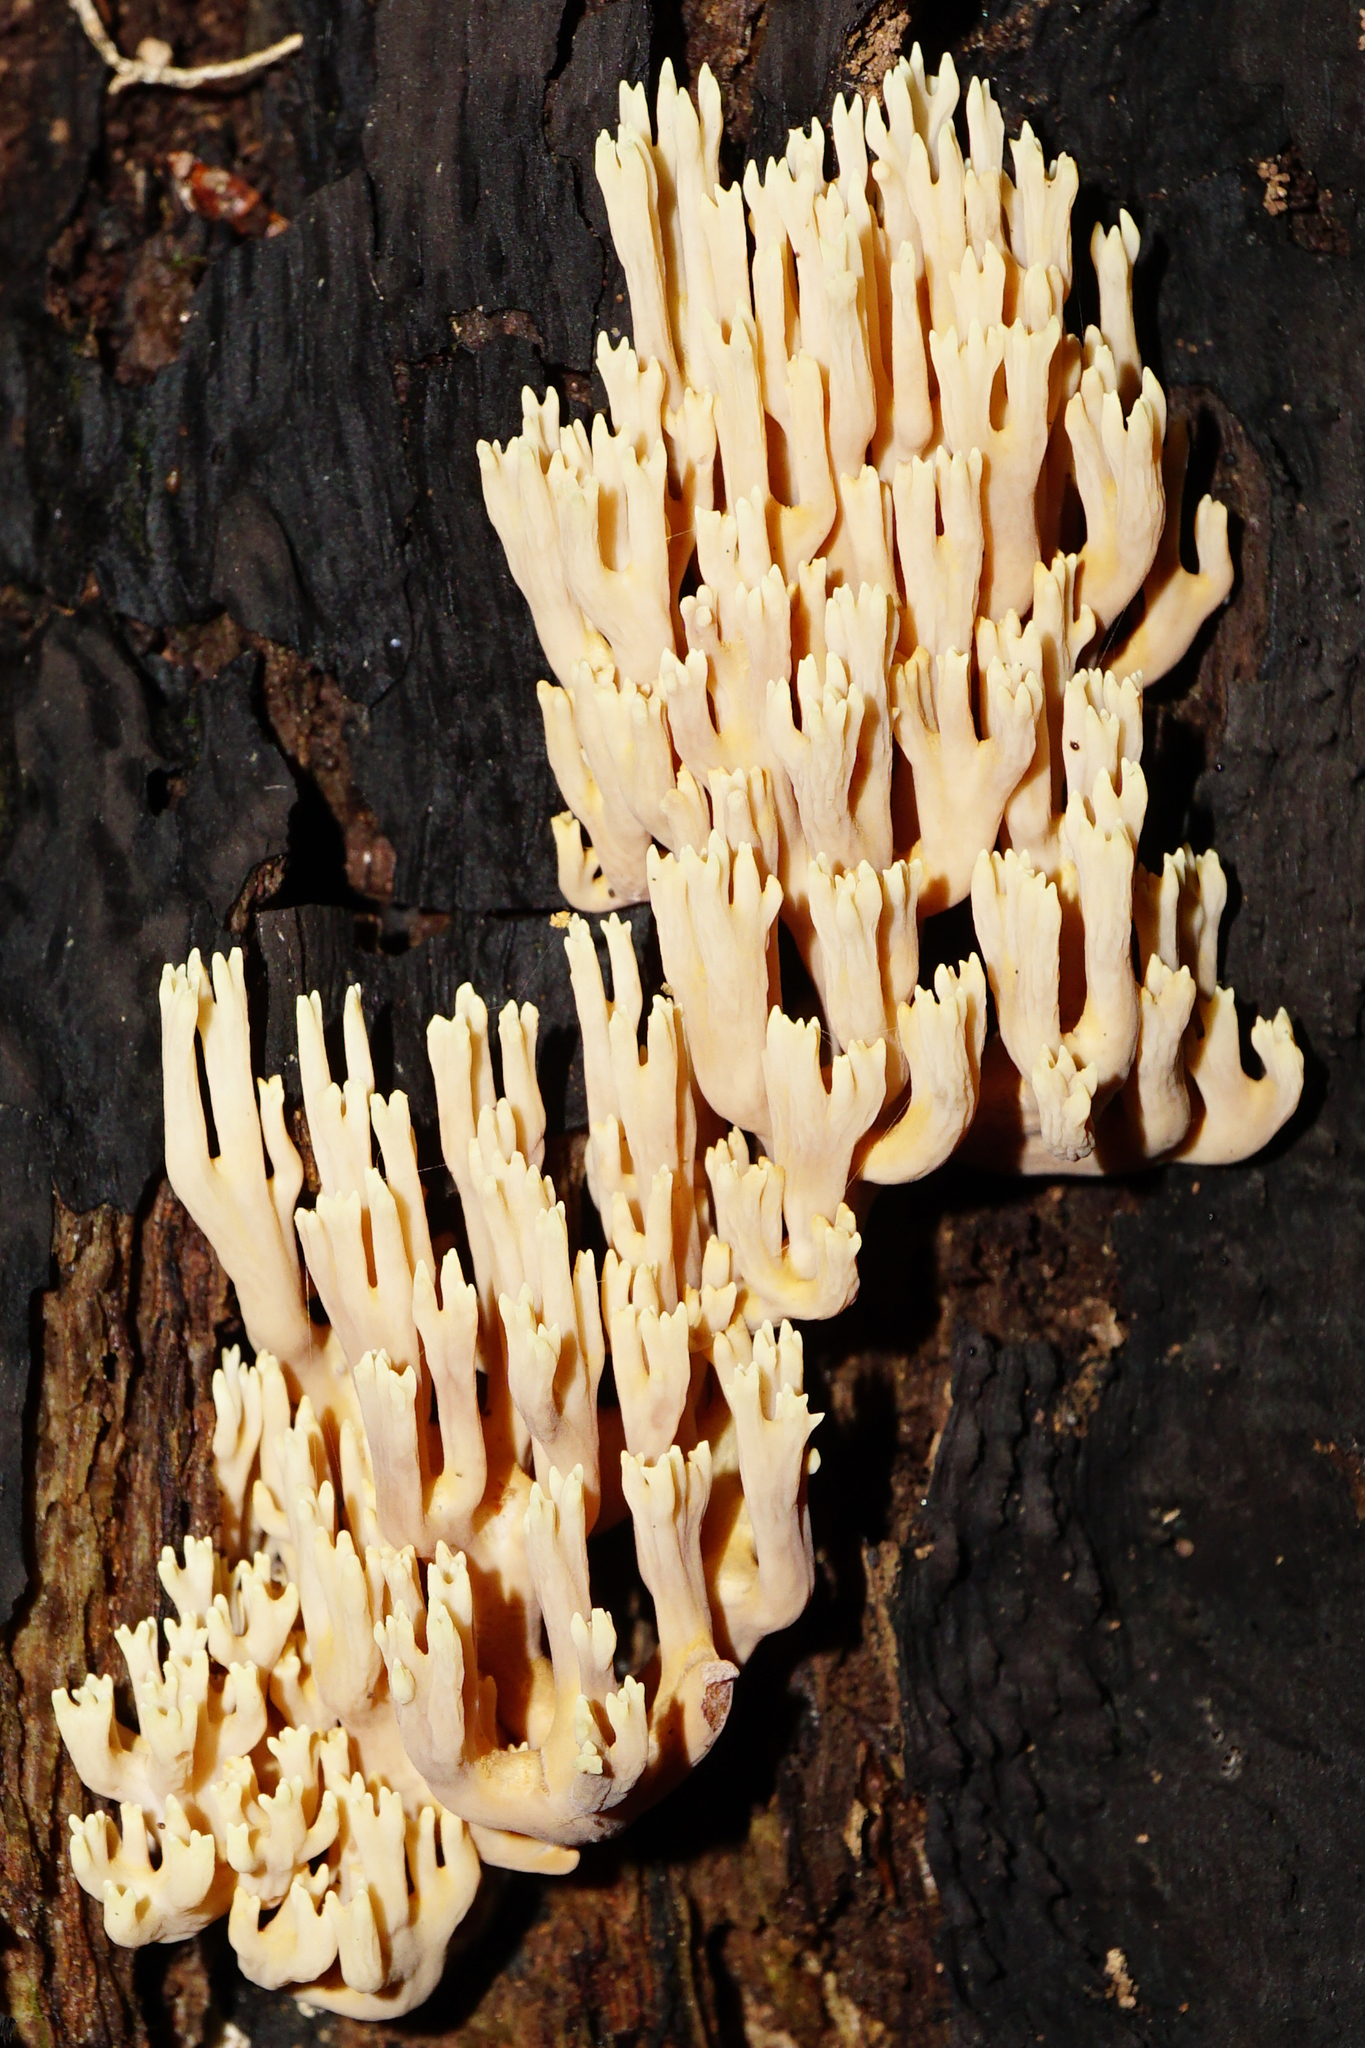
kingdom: Fungi
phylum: Basidiomycota
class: Agaricomycetes
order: Gomphales
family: Gomphaceae
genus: Ramaria
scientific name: Ramaria stricta
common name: Upright coral
